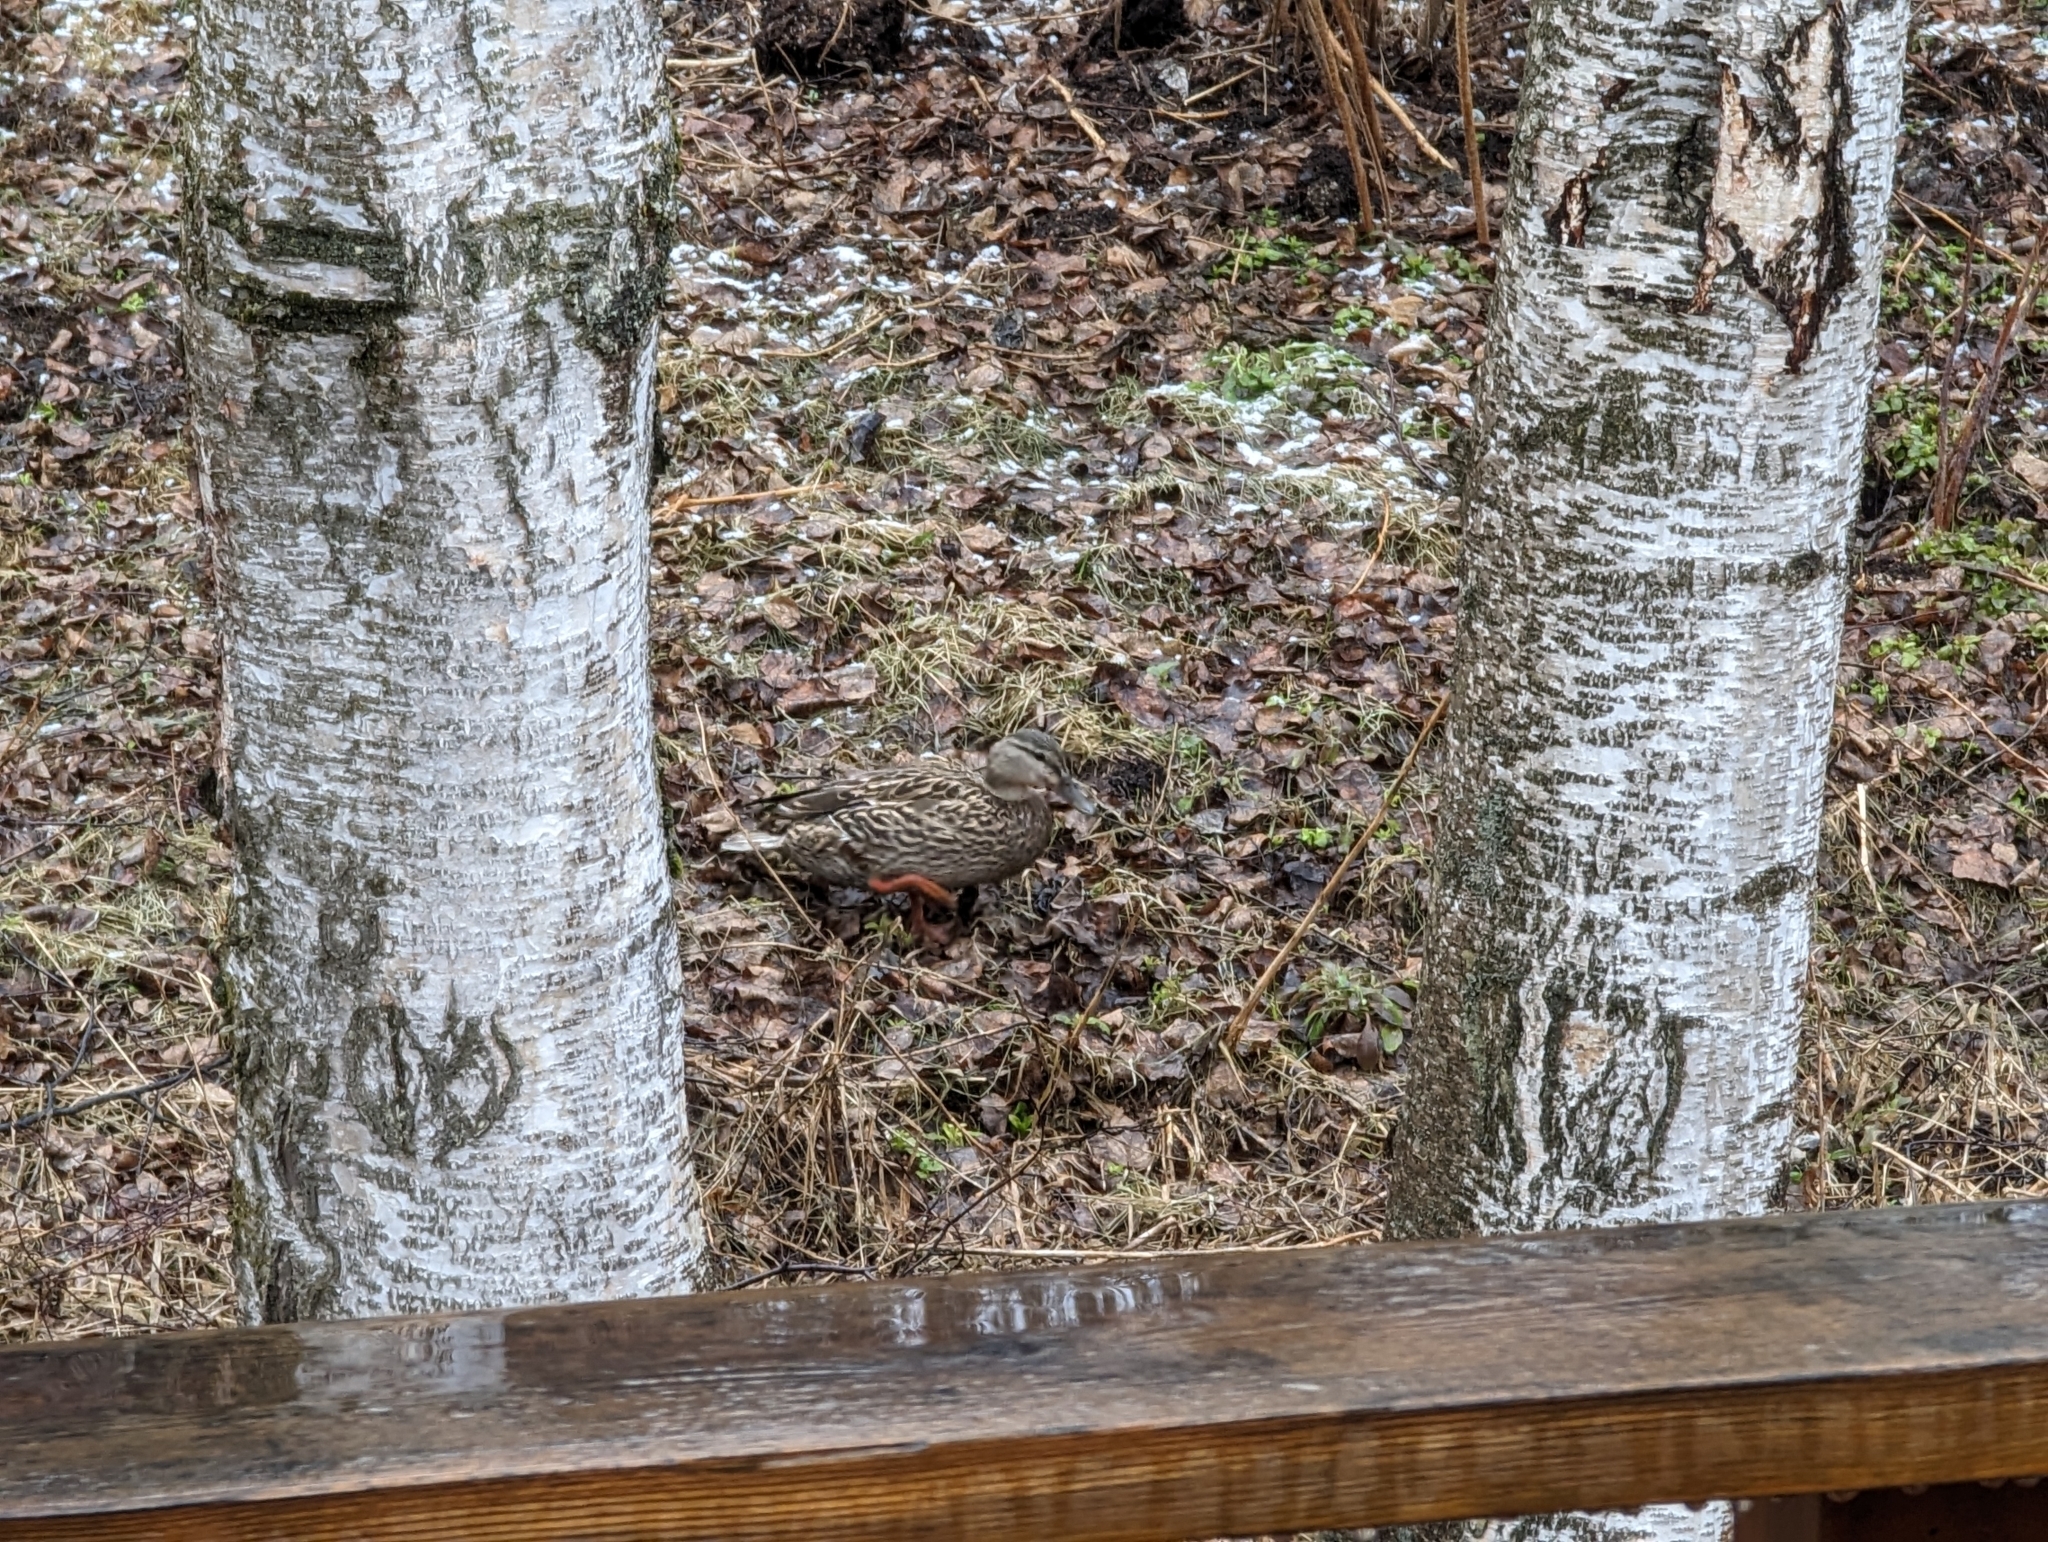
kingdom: Animalia
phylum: Chordata
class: Aves
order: Anseriformes
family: Anatidae
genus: Anas
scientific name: Anas platyrhynchos
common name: Mallard
